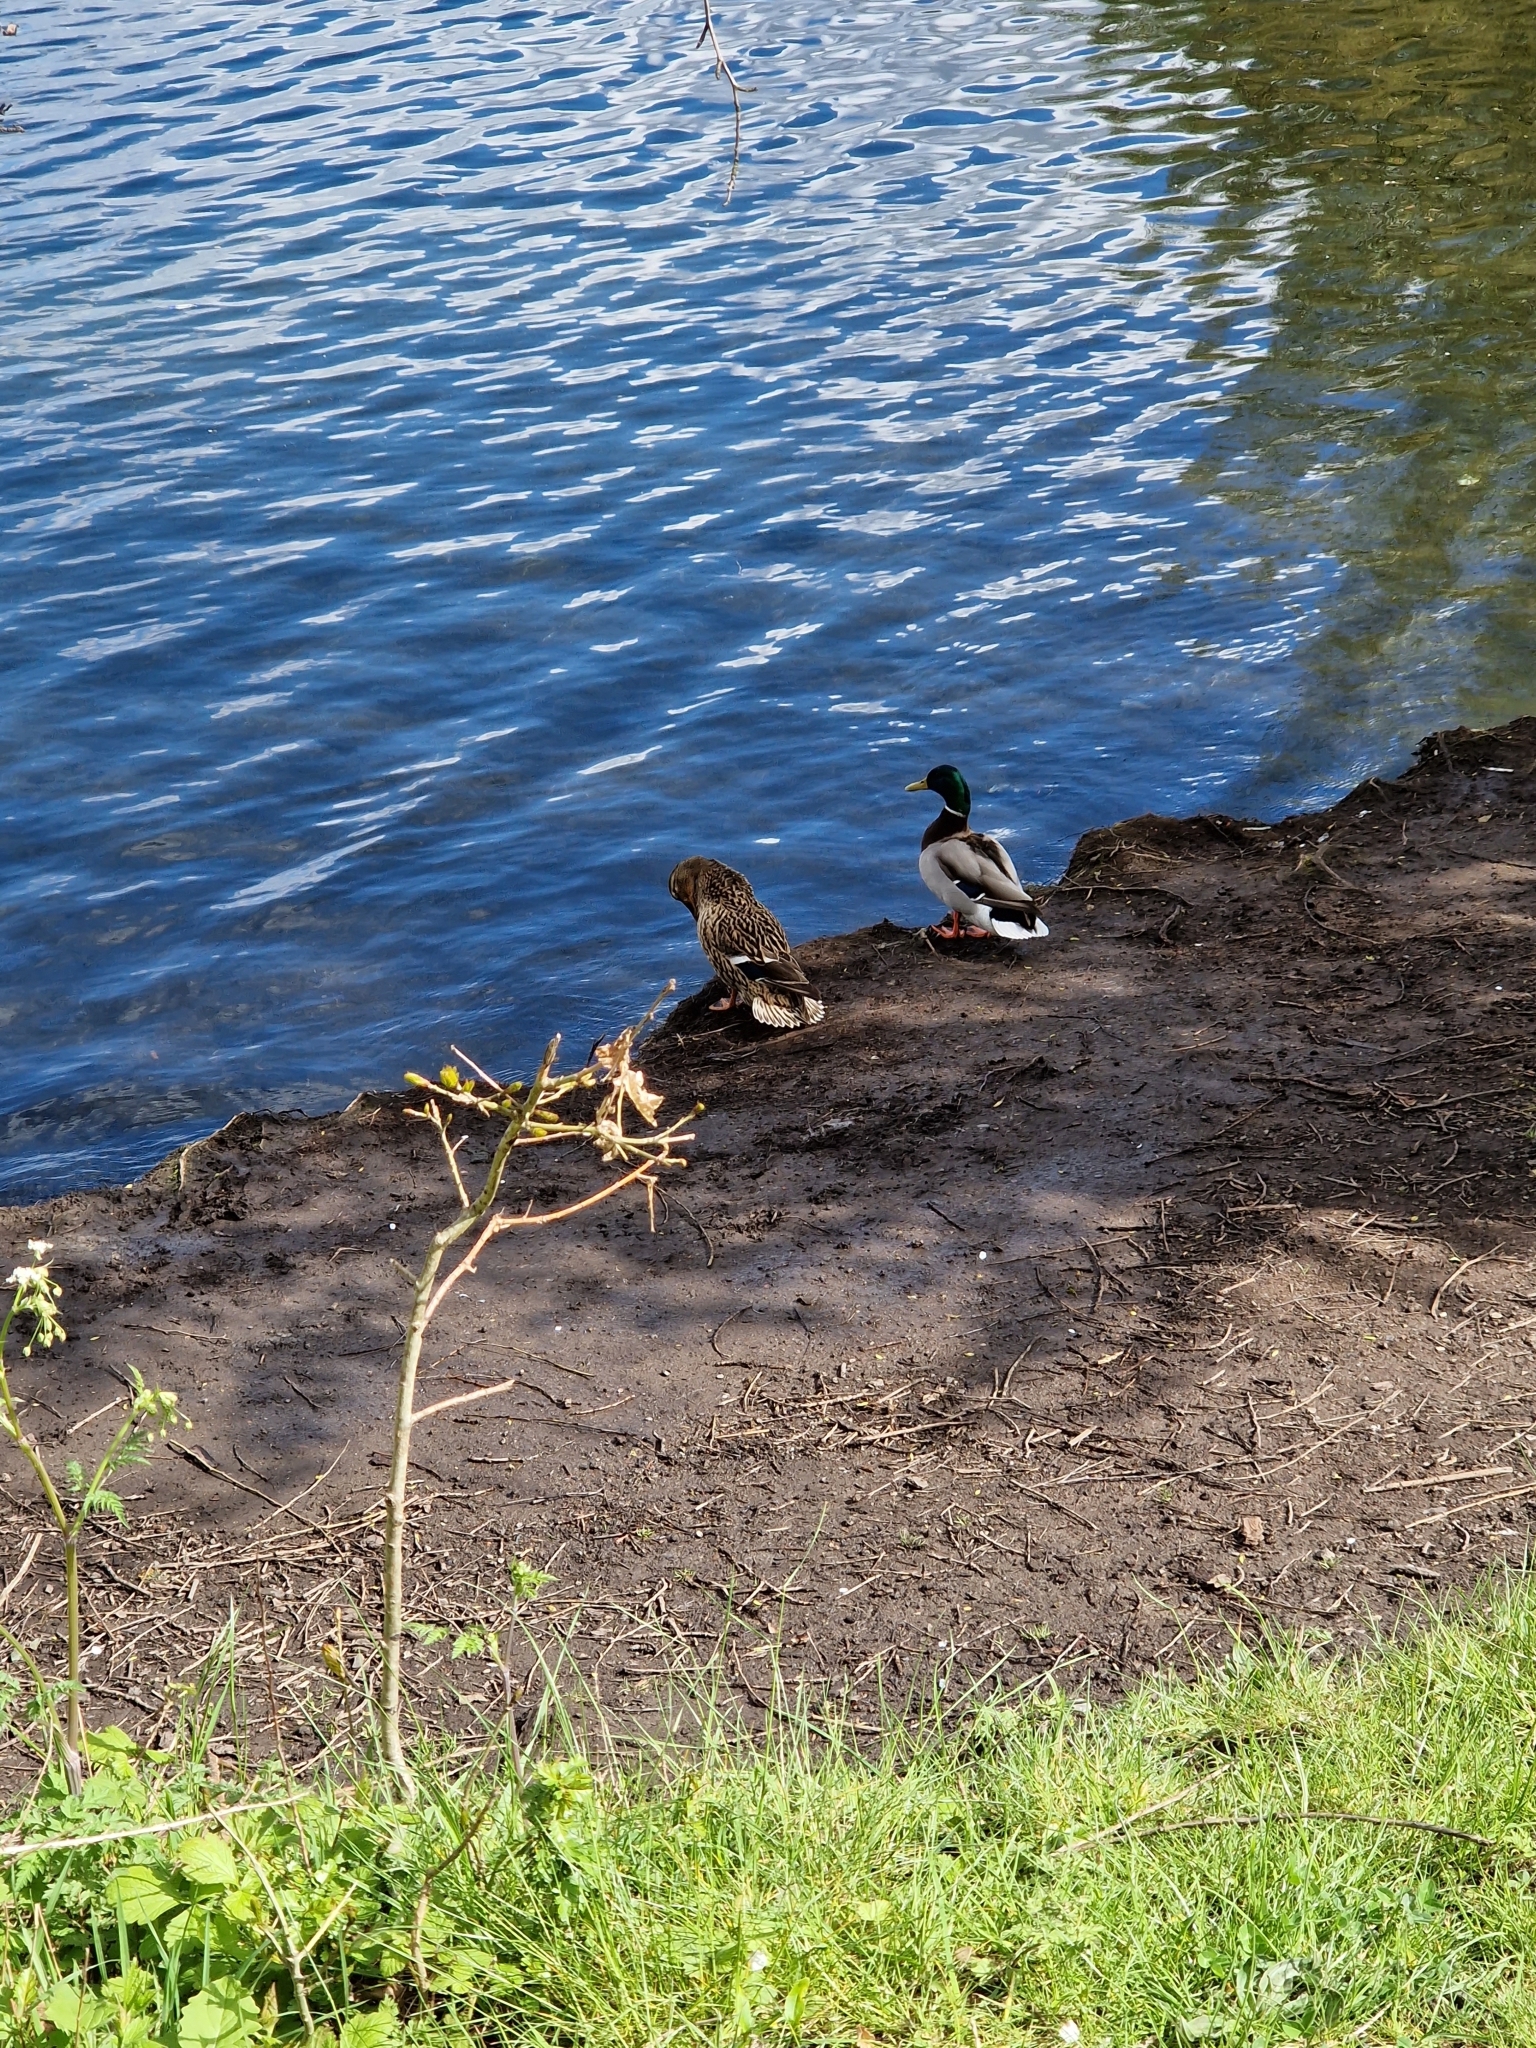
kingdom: Animalia
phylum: Chordata
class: Aves
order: Anseriformes
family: Anatidae
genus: Anas
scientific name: Anas platyrhynchos
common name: Mallard
